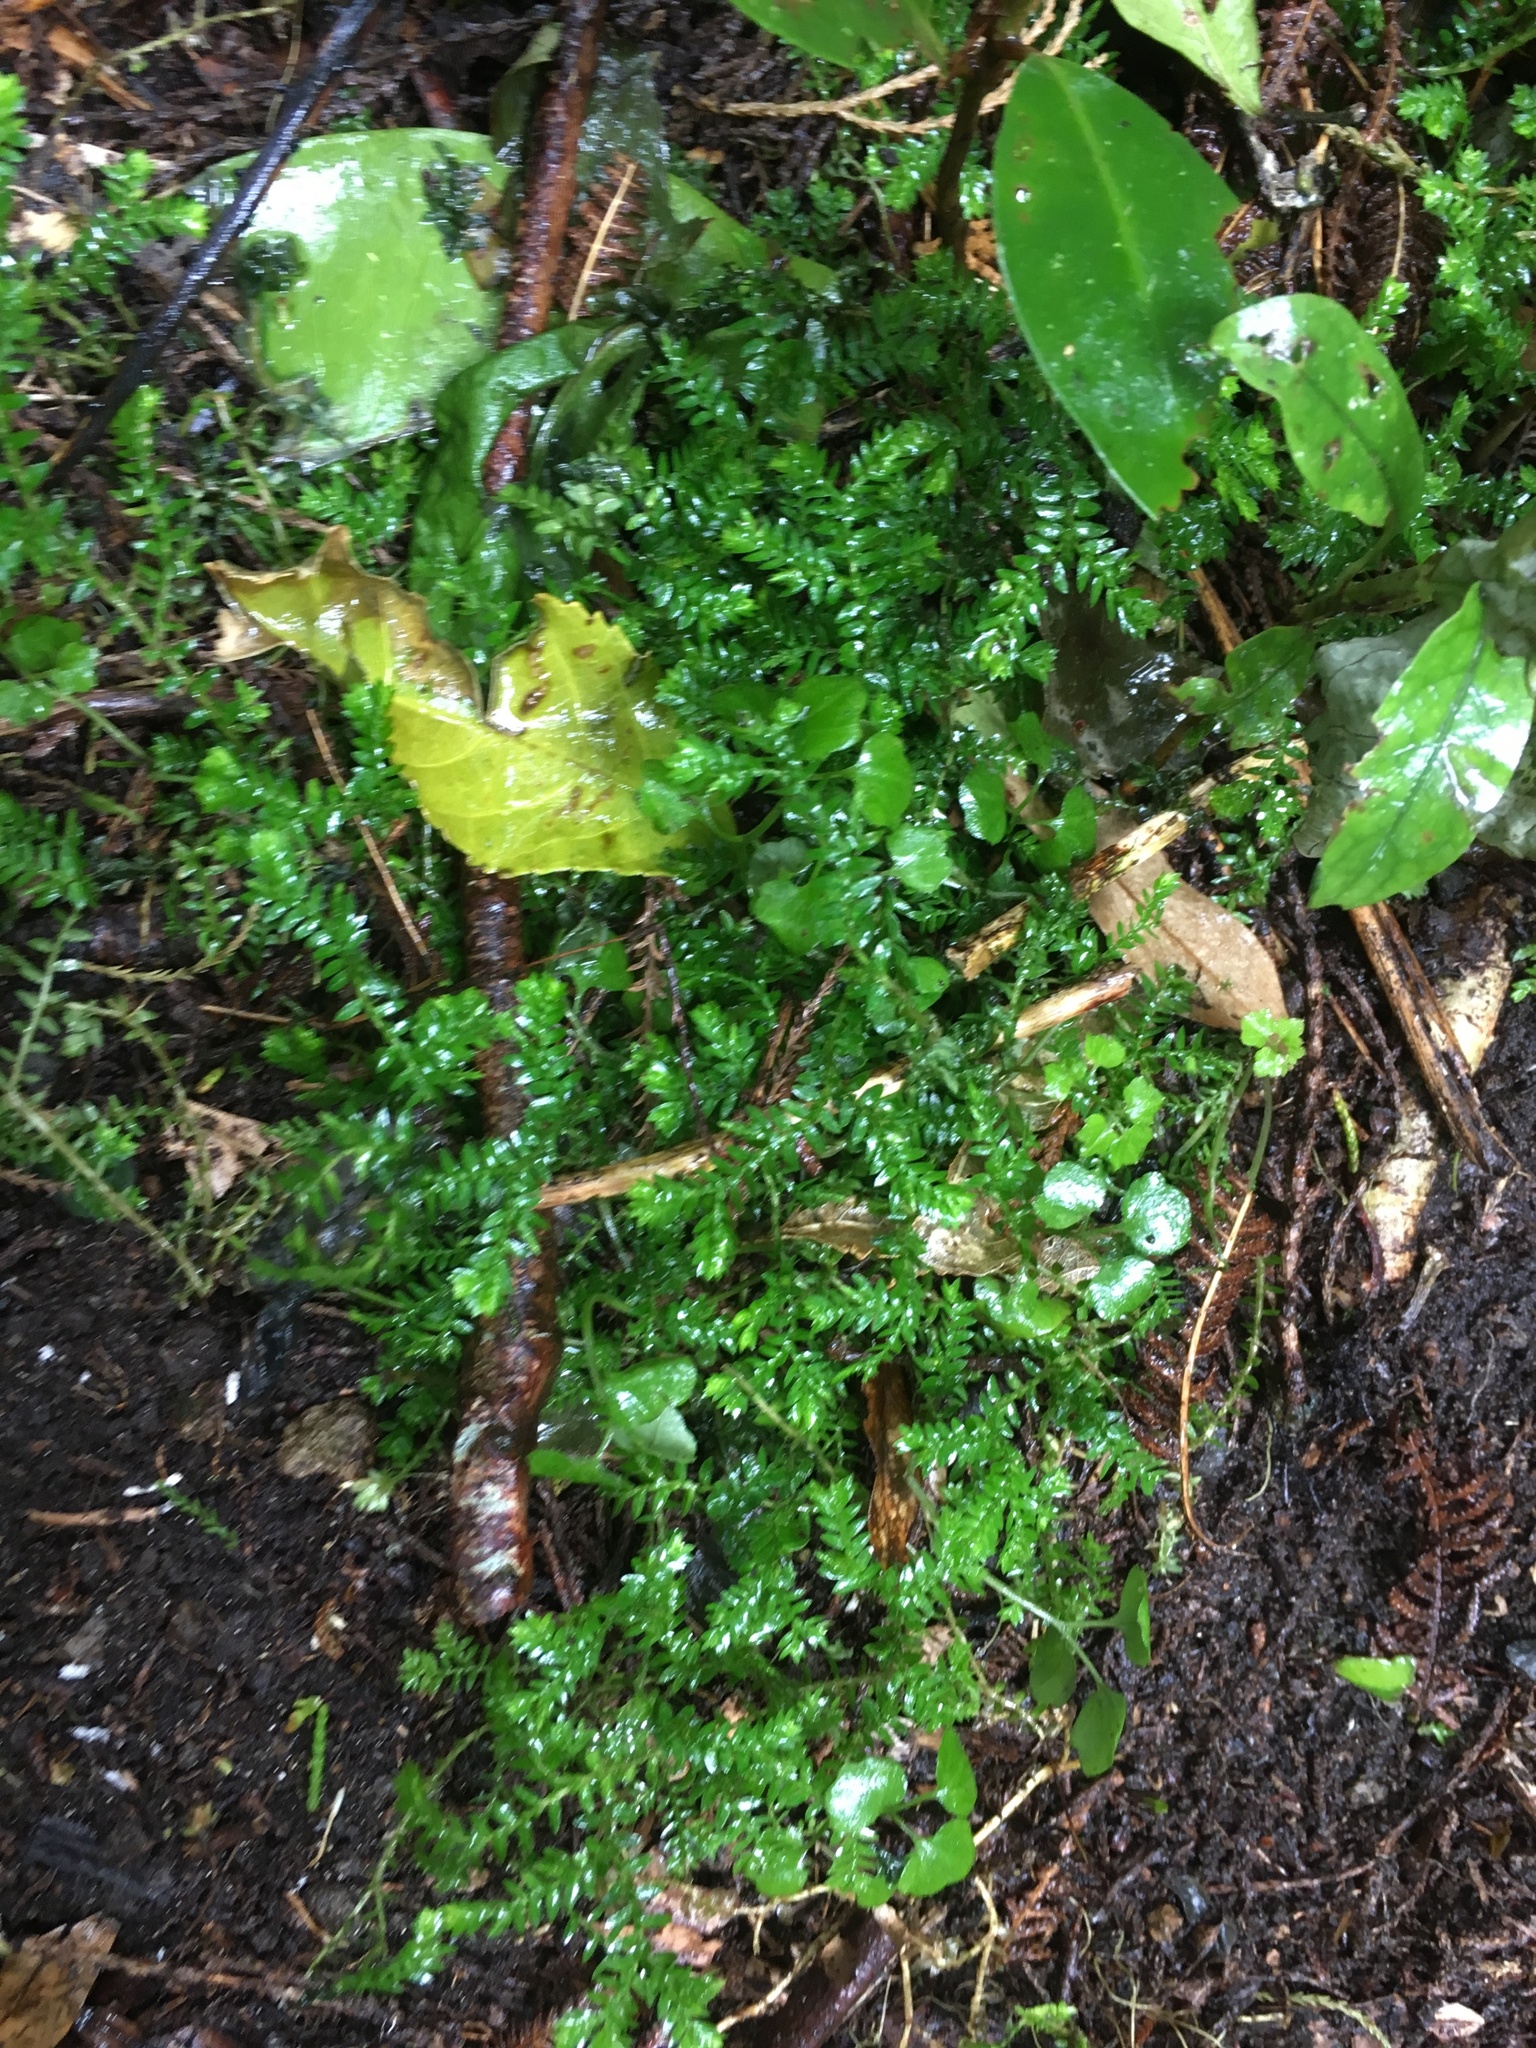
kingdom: Plantae
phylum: Tracheophyta
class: Lycopodiopsida
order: Selaginellales
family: Selaginellaceae
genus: Selaginella
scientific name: Selaginella kraussiana
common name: Krauss' spikemoss
